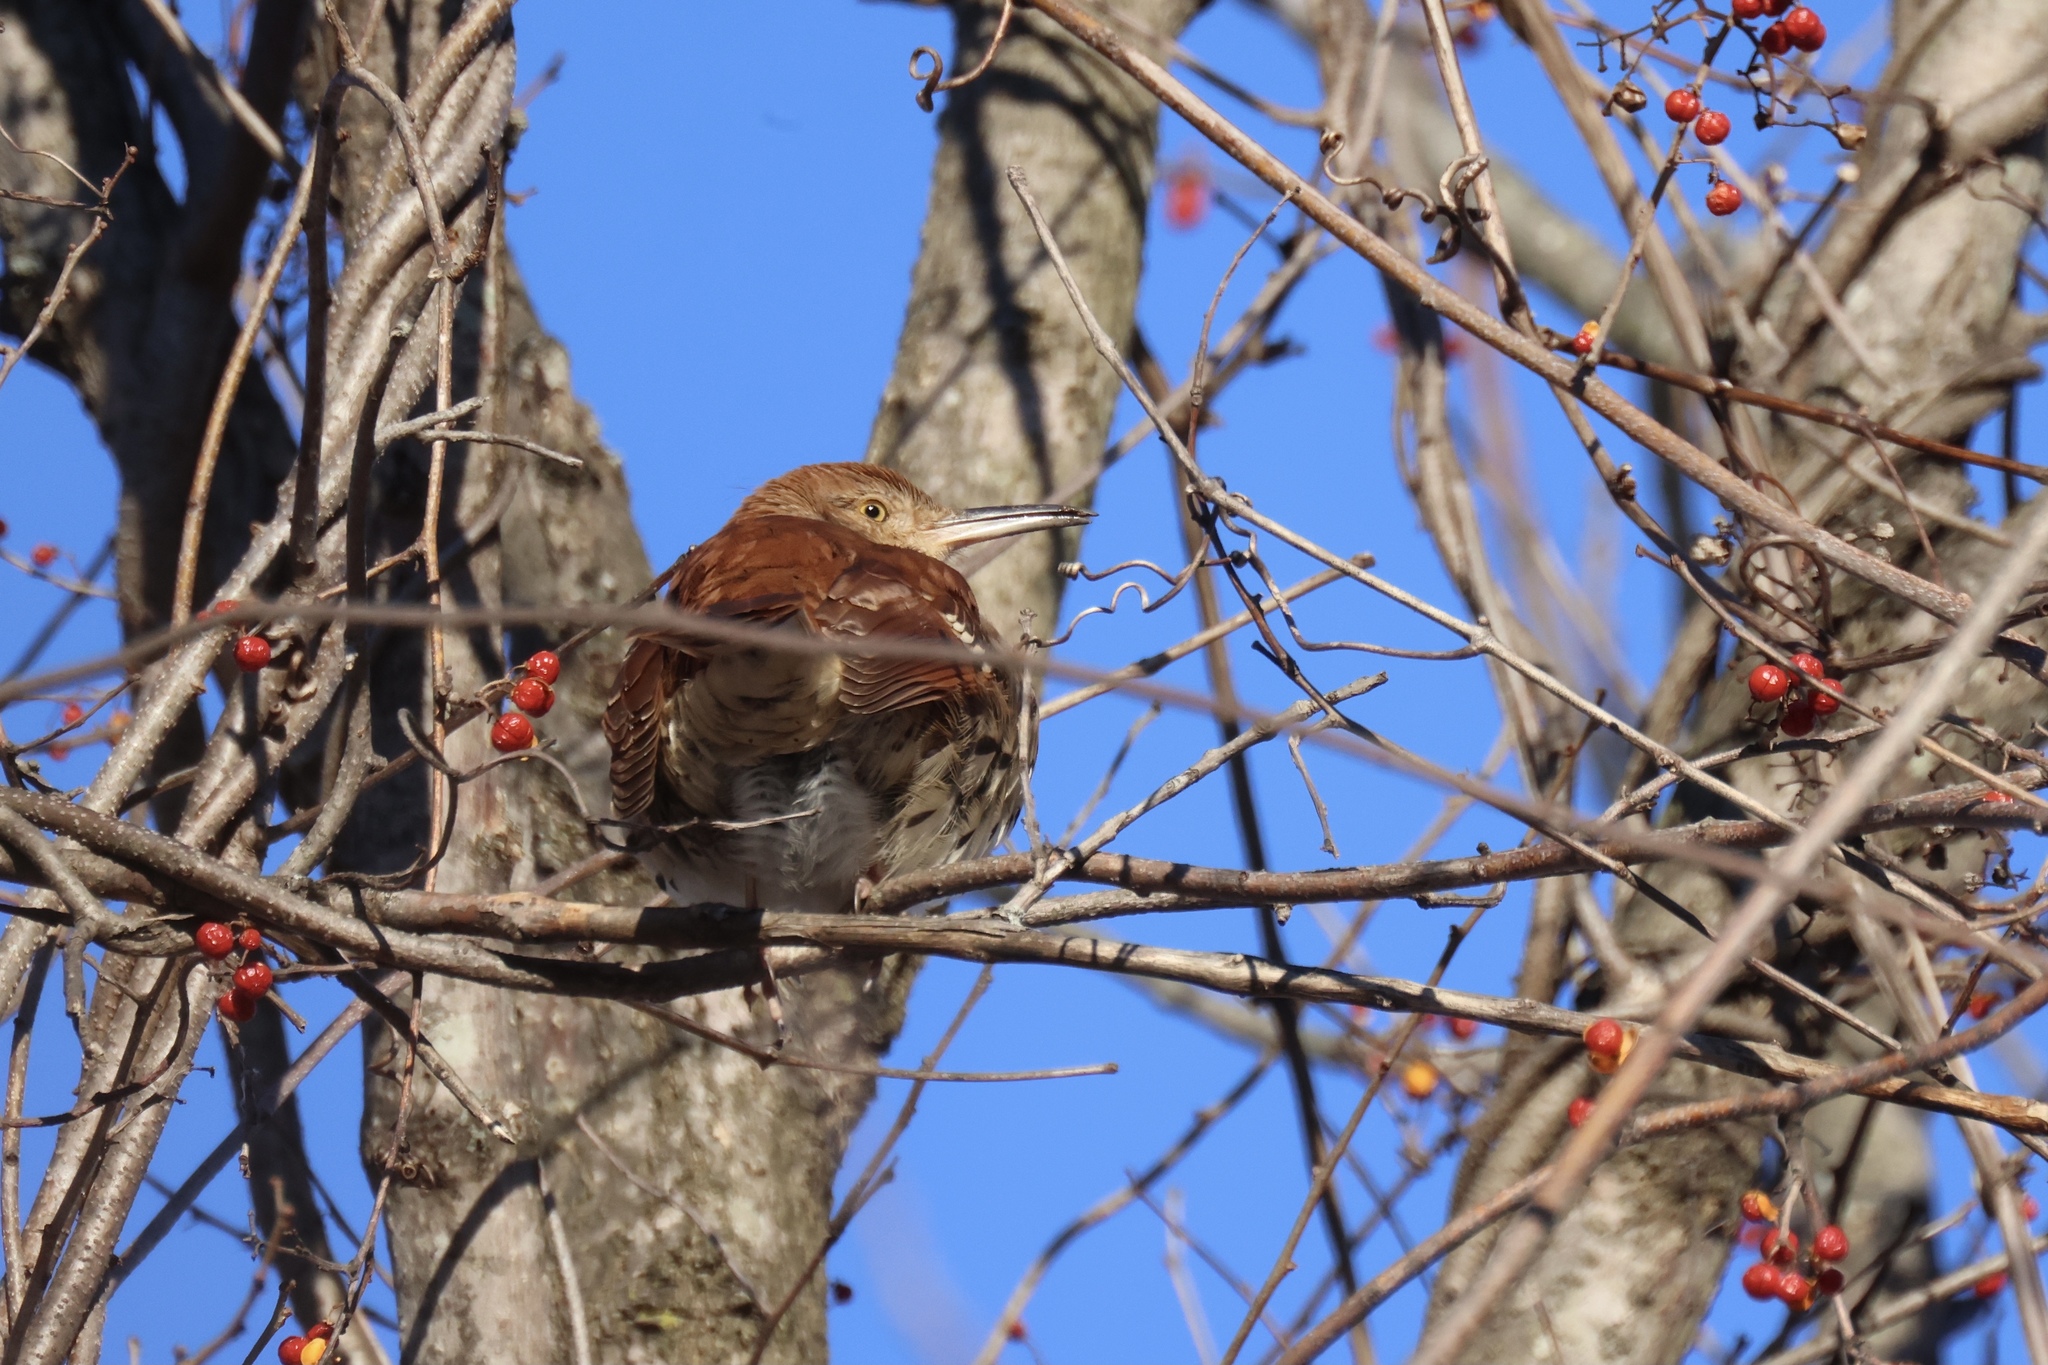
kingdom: Animalia
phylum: Chordata
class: Aves
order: Passeriformes
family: Mimidae
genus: Toxostoma
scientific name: Toxostoma rufum
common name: Brown thrasher
